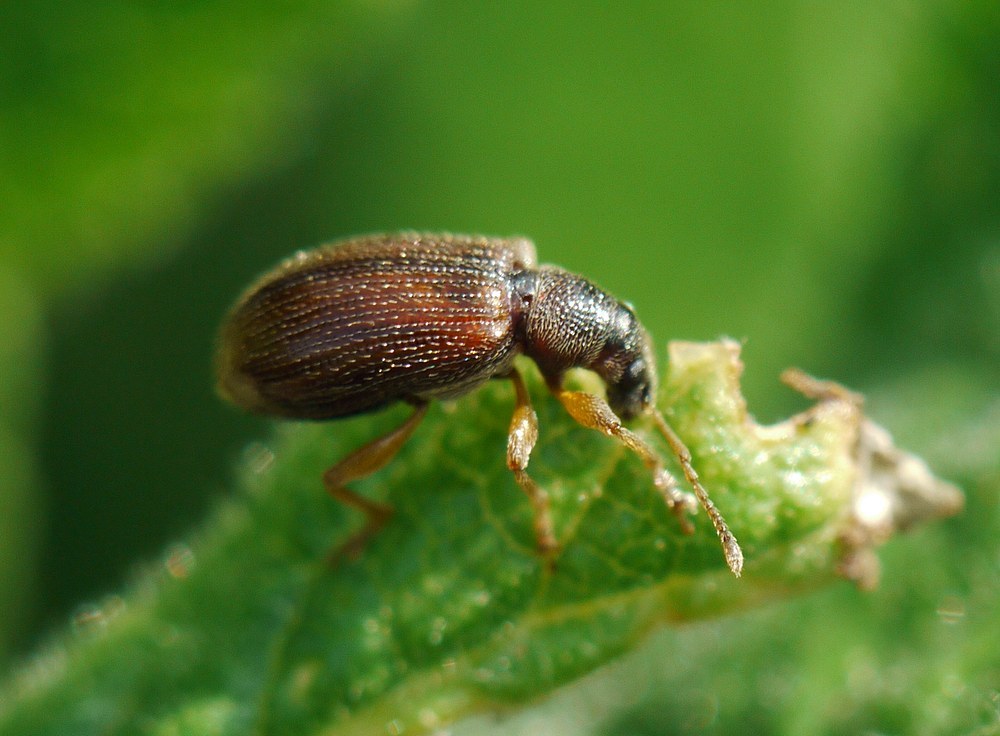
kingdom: Animalia
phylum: Arthropoda
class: Insecta
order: Coleoptera
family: Curculionidae
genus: Phyllobius
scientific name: Phyllobius oblongus
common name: Brown leaf weevil
